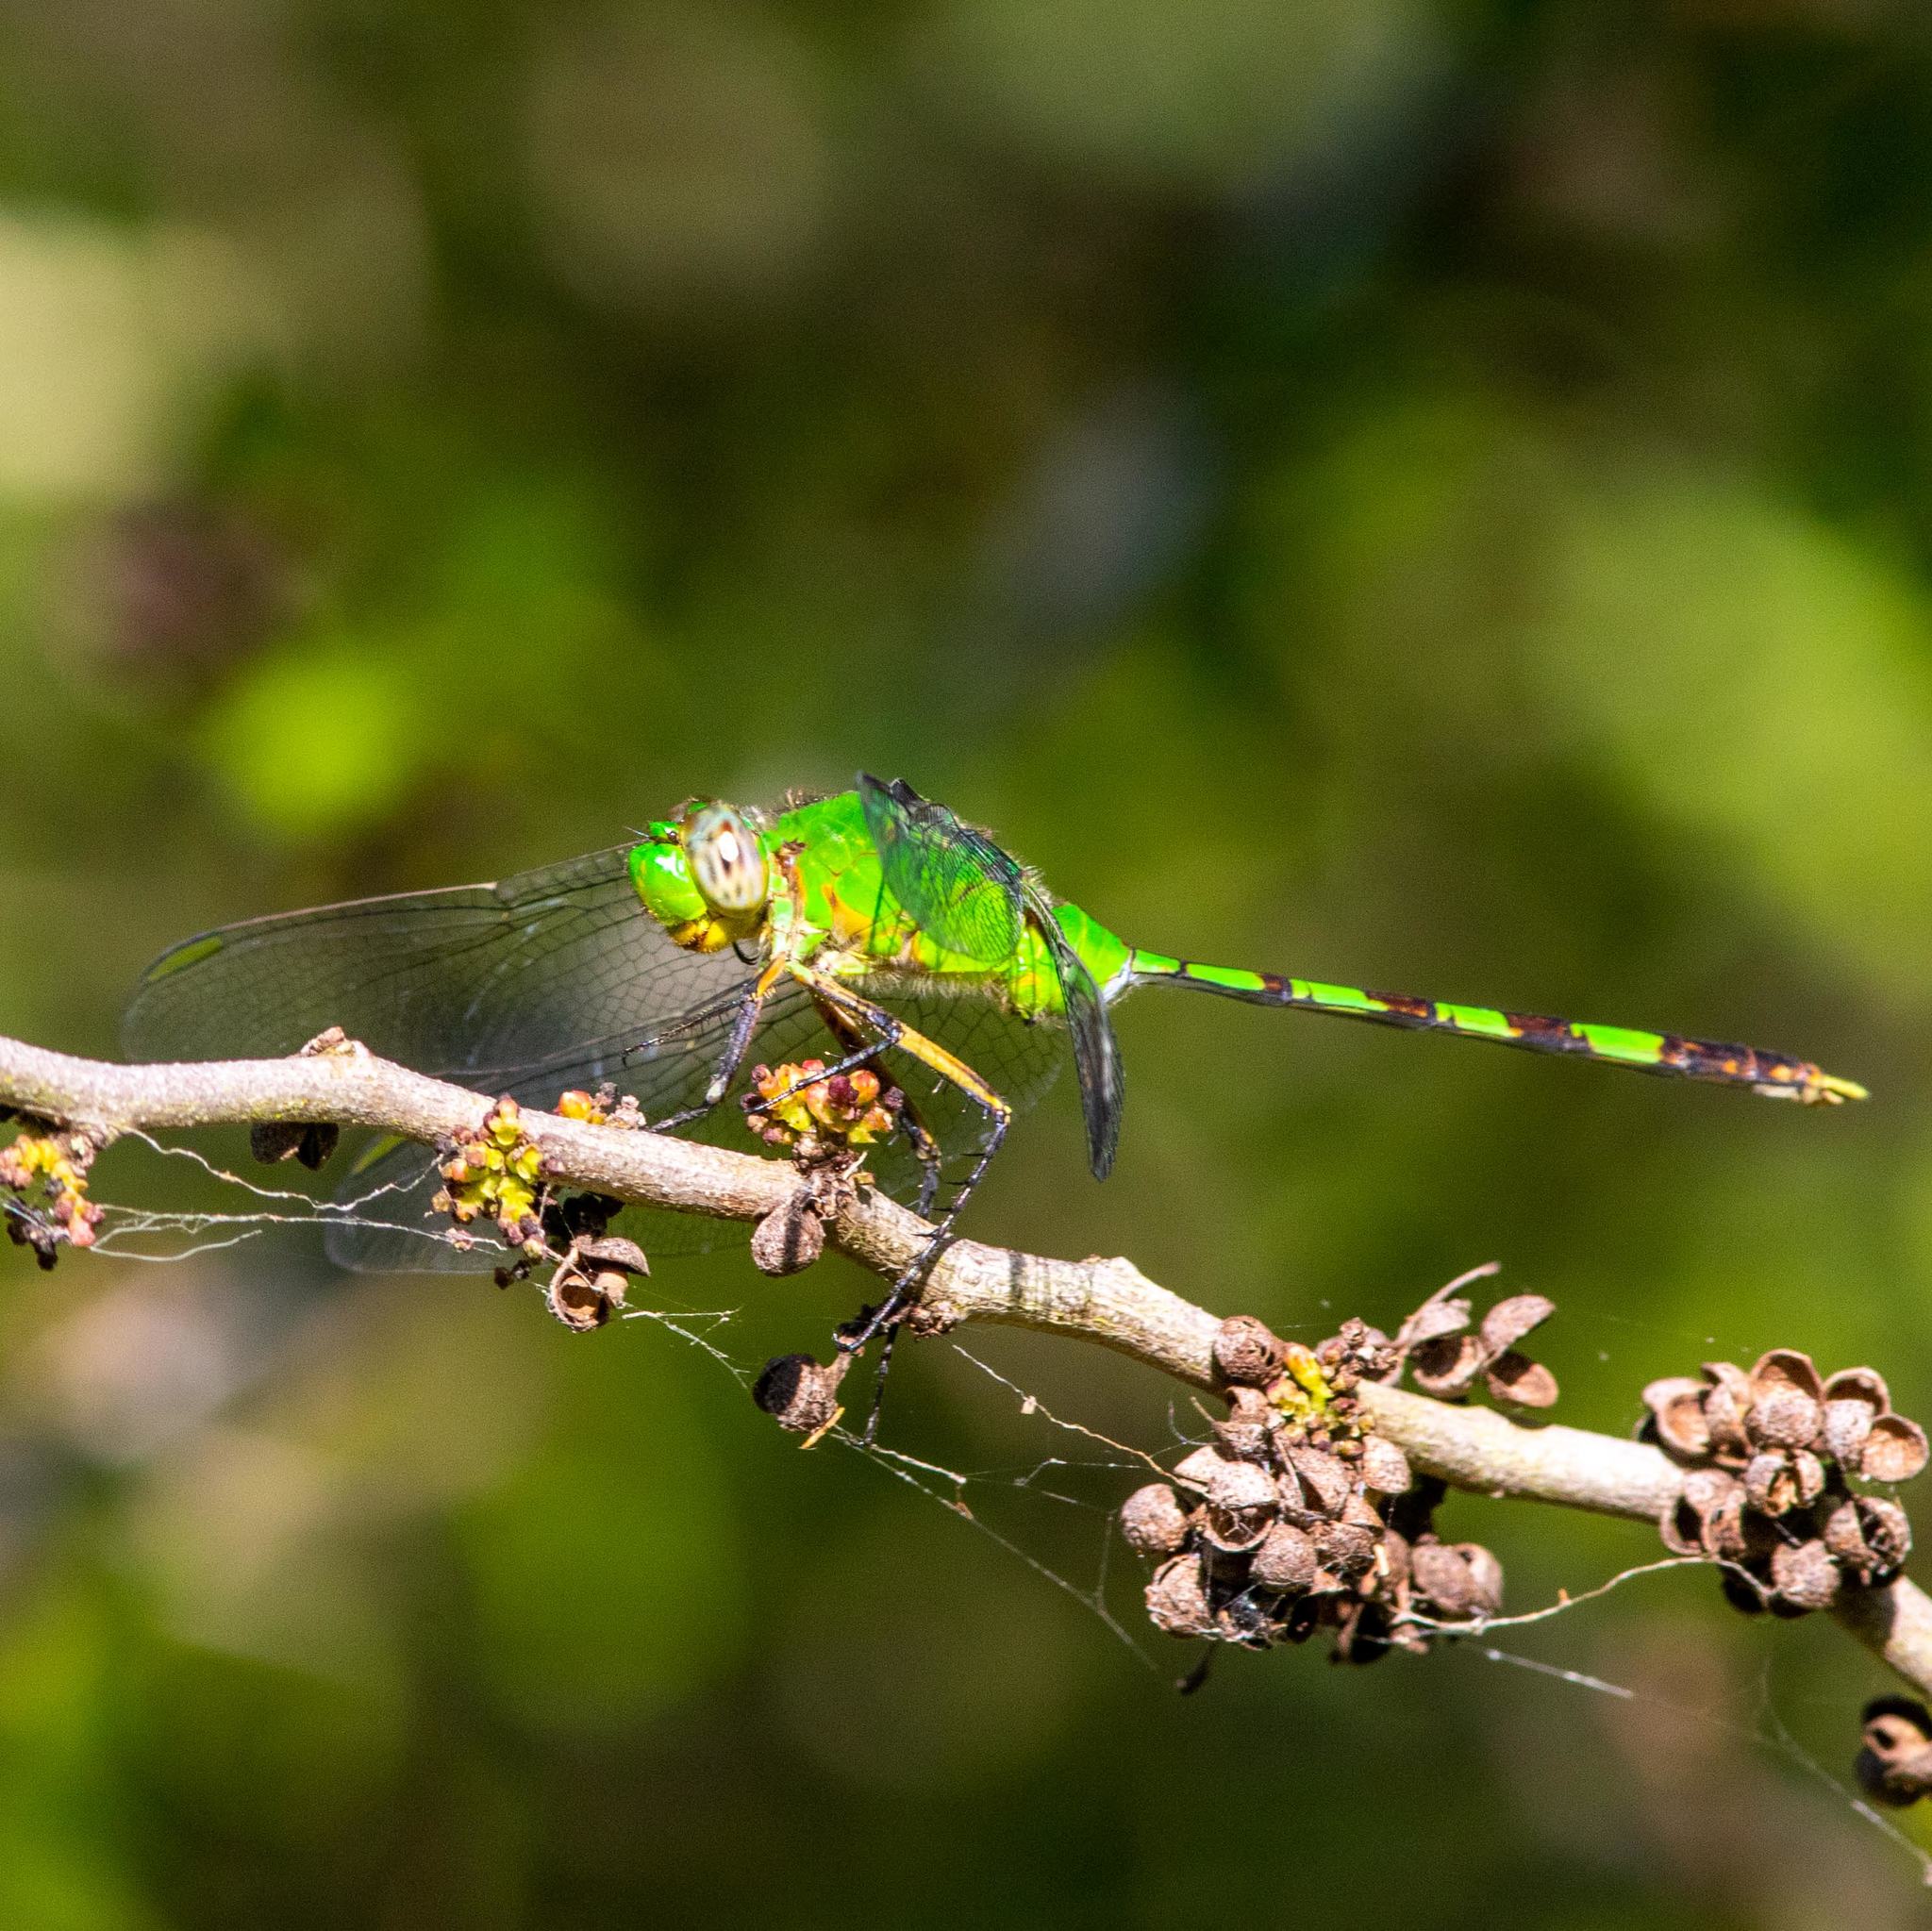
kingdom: Animalia
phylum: Arthropoda
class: Insecta
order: Odonata
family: Libellulidae
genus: Erythemis
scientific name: Erythemis vesiculosa
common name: Great pondhawk
